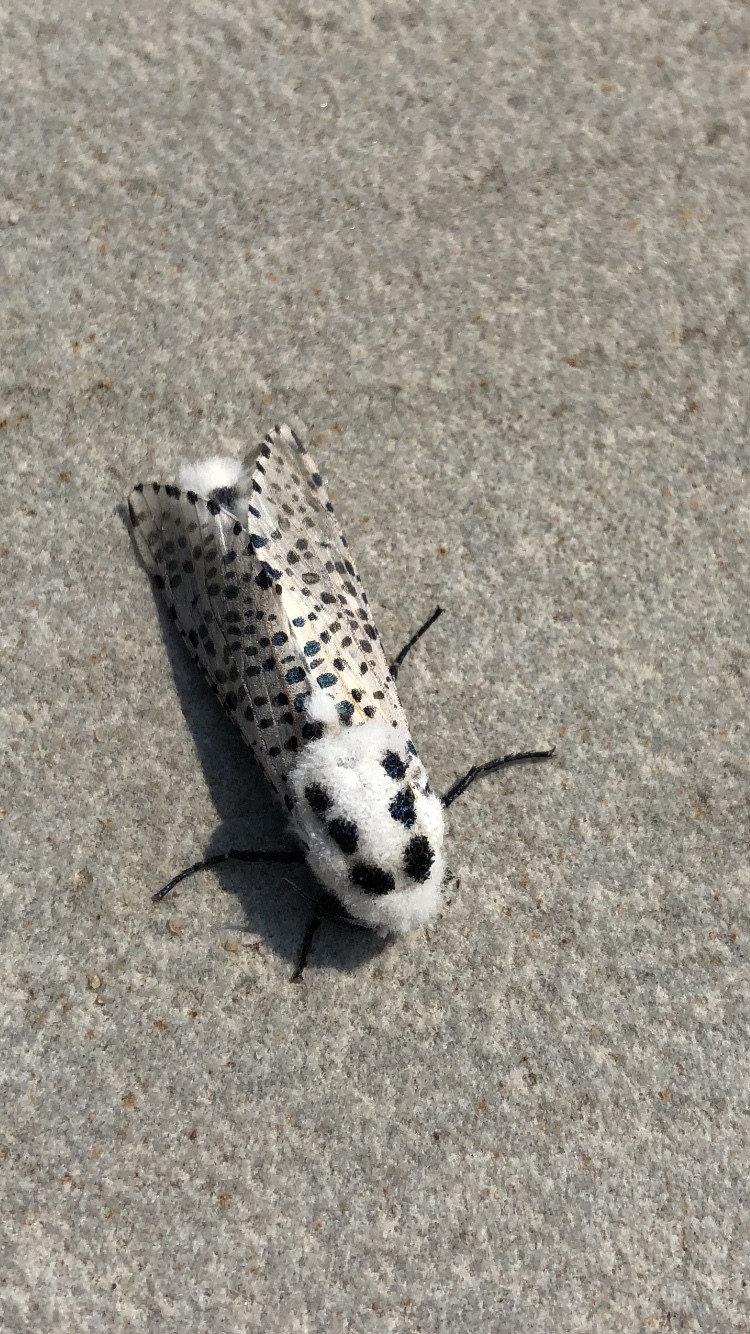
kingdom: Animalia
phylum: Arthropoda
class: Insecta
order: Lepidoptera
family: Cossidae
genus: Zeuzera
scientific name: Zeuzera pyrina
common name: Leopard moth
